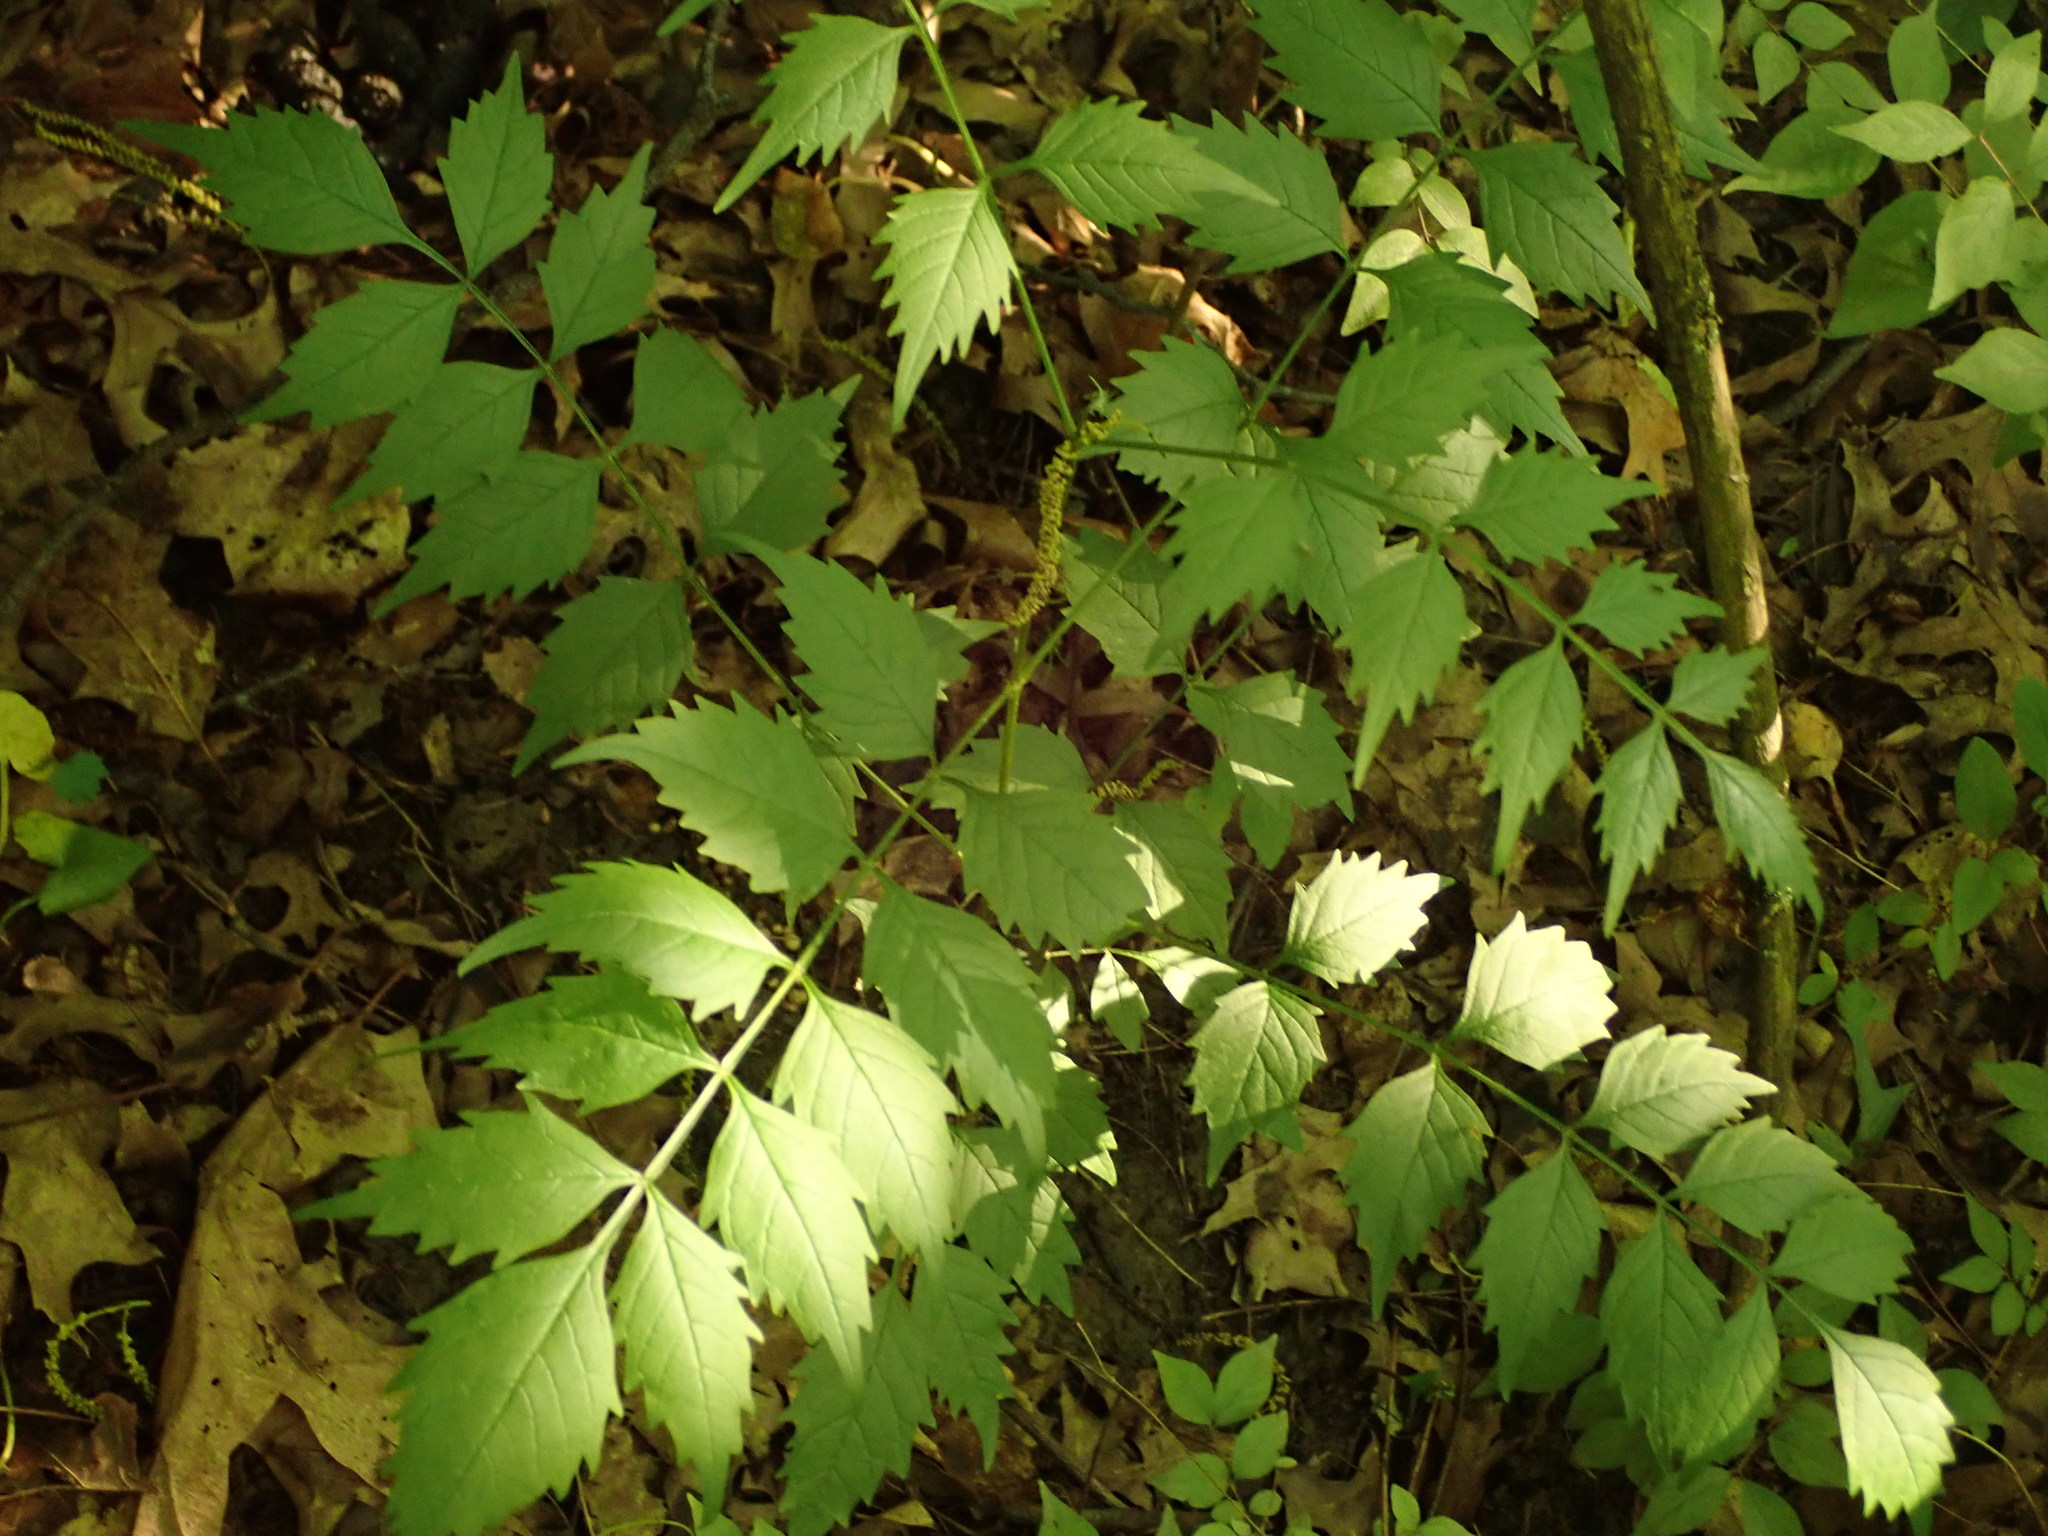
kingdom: Plantae
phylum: Tracheophyta
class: Magnoliopsida
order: Lamiales
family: Bignoniaceae
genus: Campsis
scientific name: Campsis radicans
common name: Trumpet-creeper
